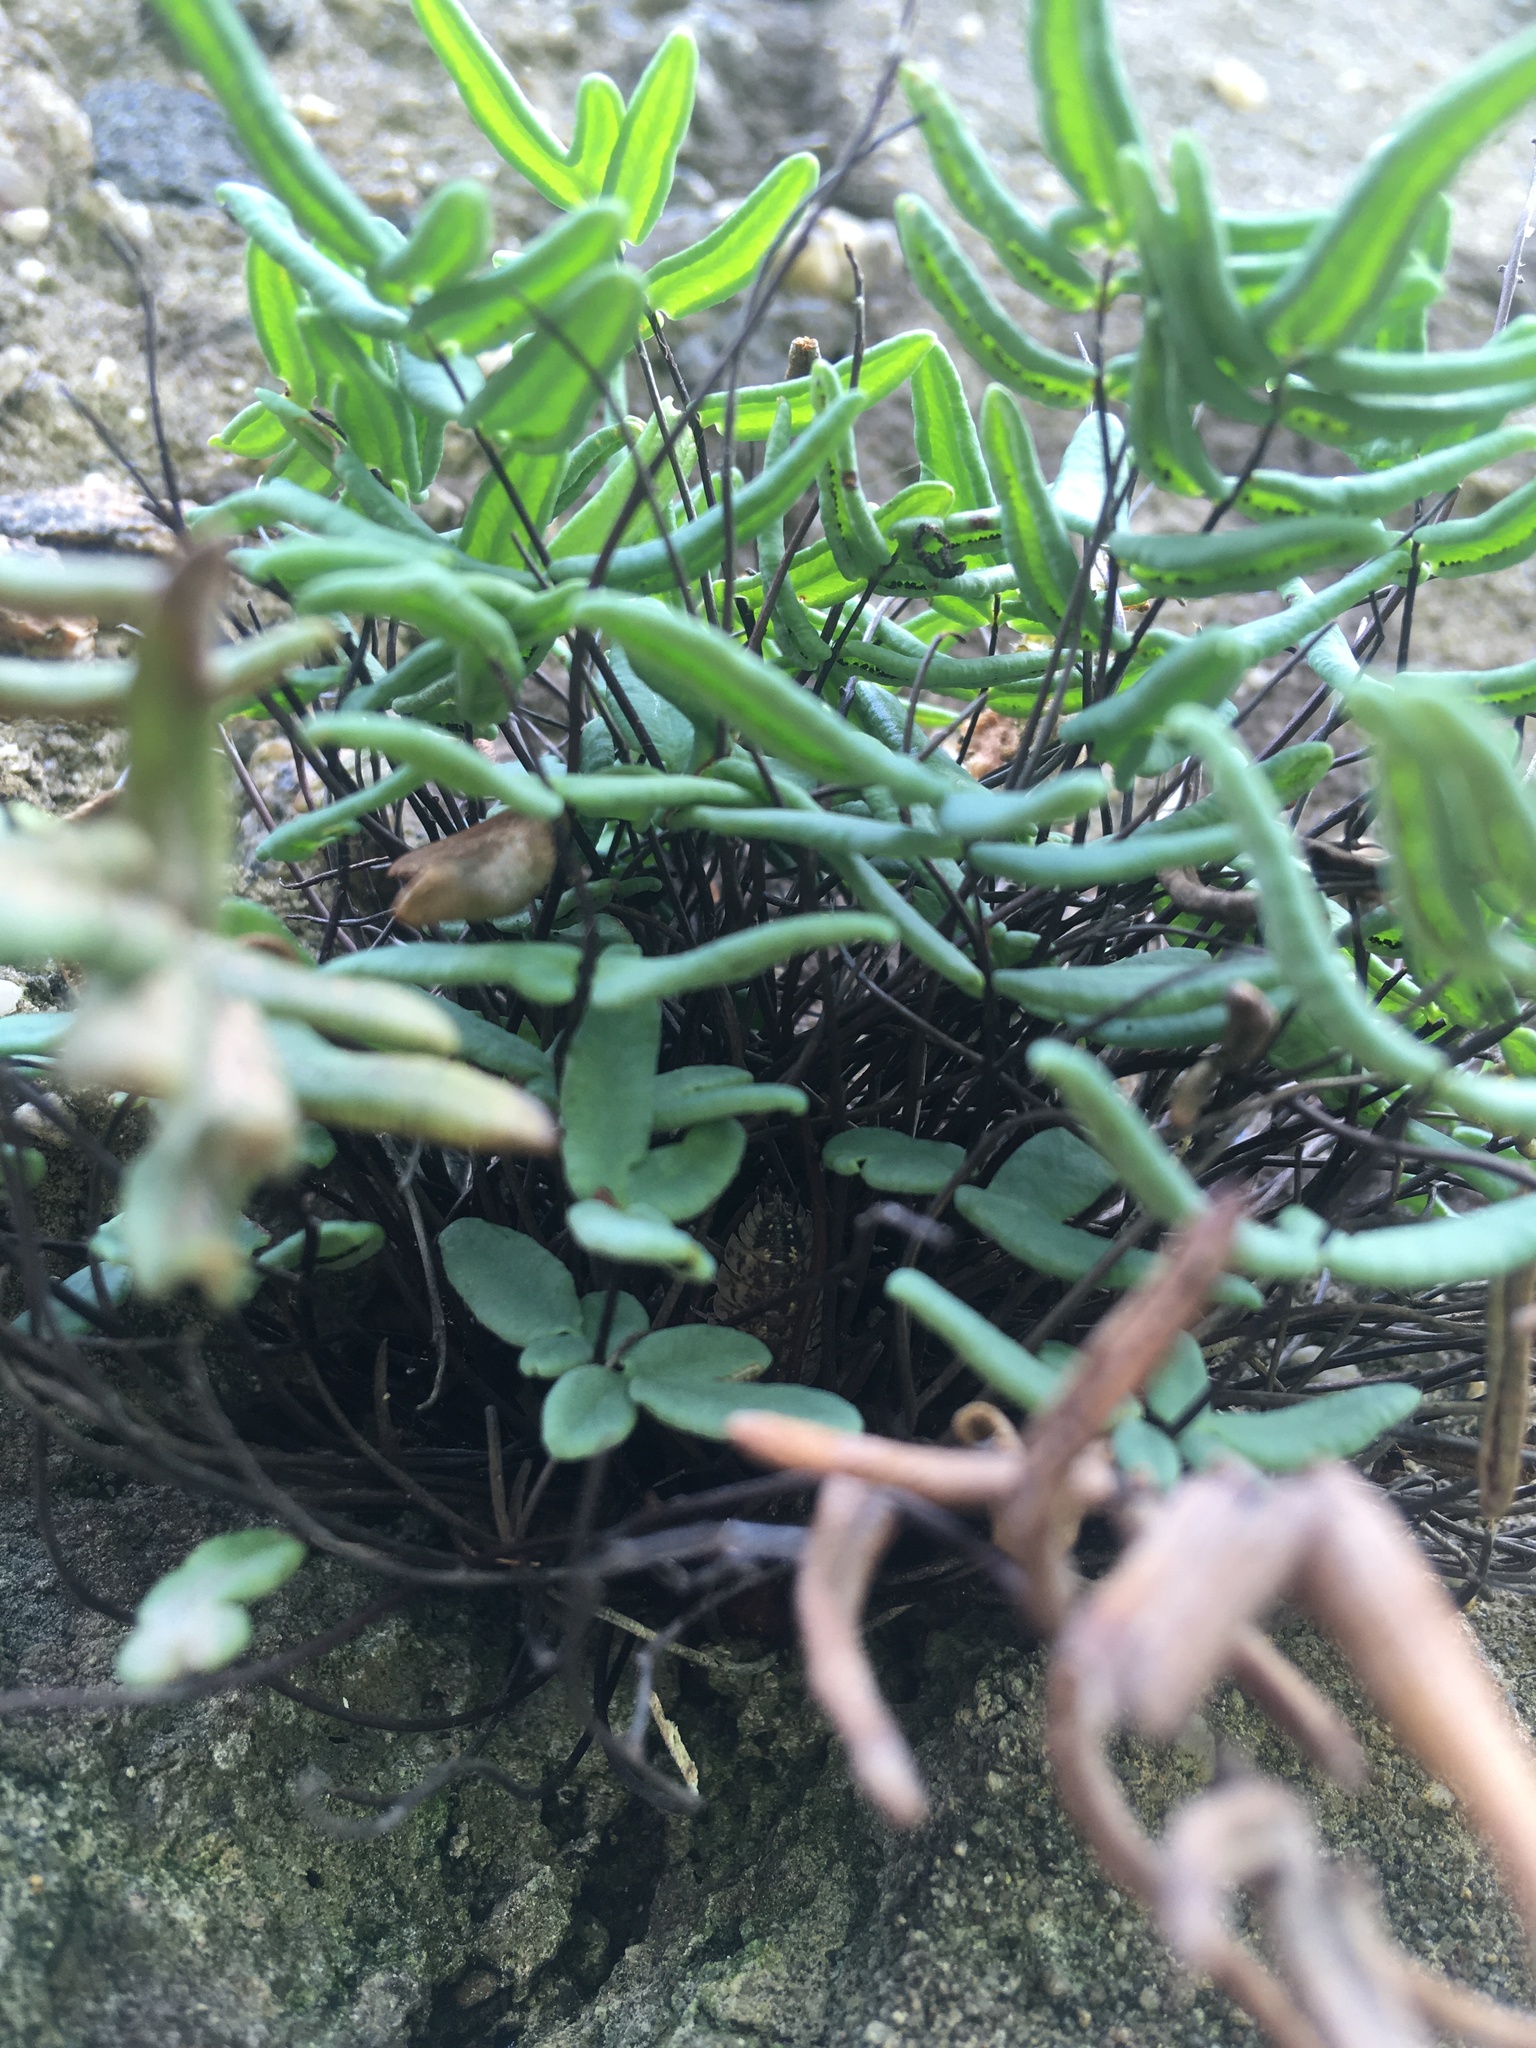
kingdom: Plantae
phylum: Tracheophyta
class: Polypodiopsida
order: Polypodiales
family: Pteridaceae
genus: Pellaea
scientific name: Pellaea glabella
